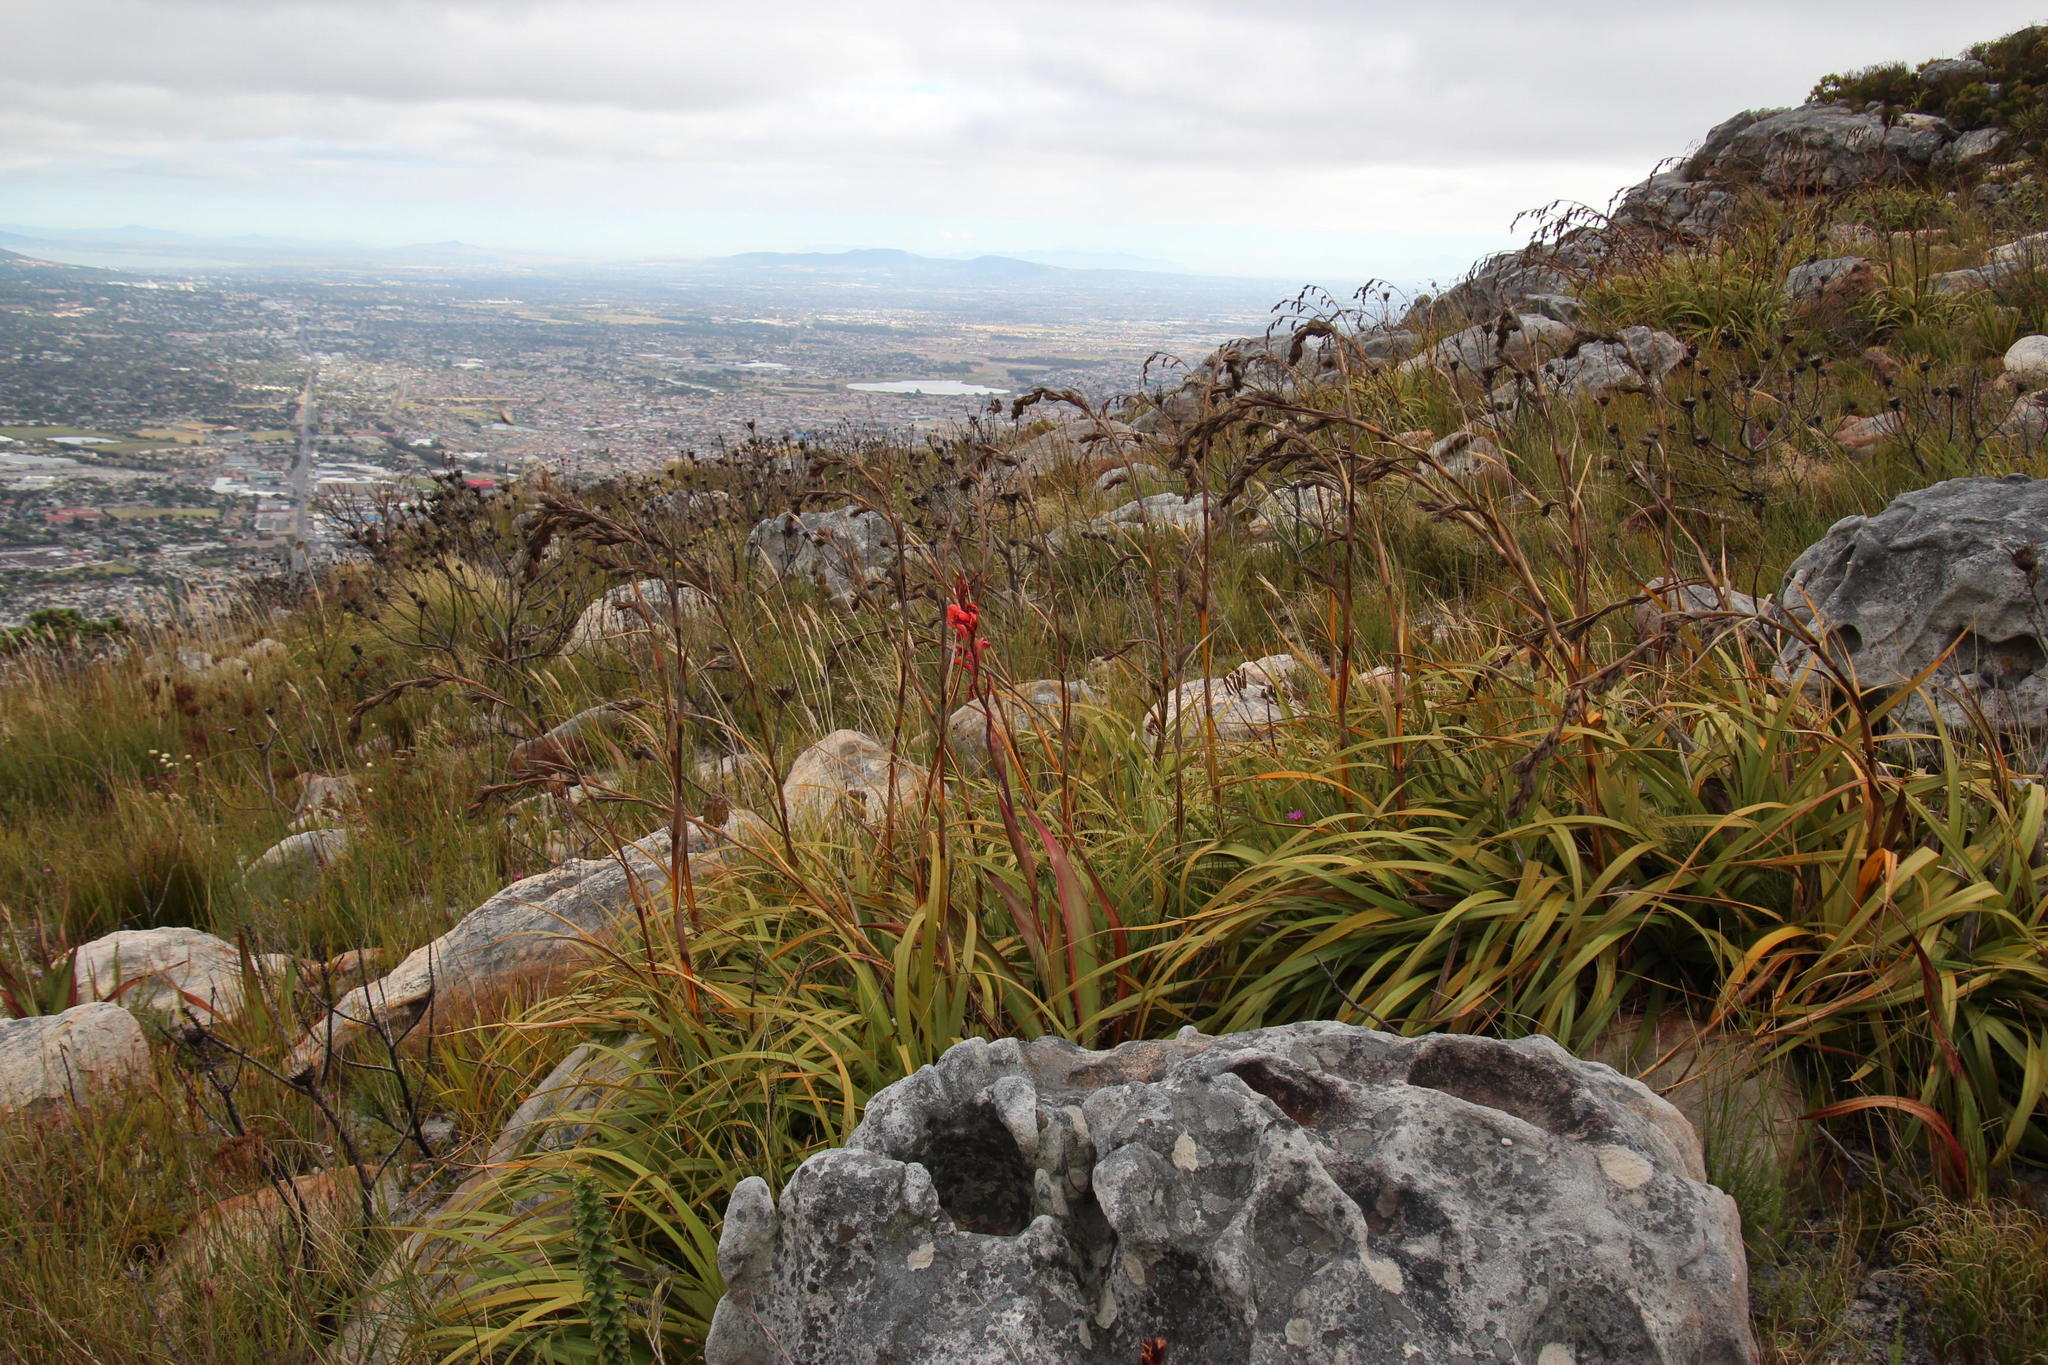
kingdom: Plantae
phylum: Tracheophyta
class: Liliopsida
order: Poales
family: Cyperaceae
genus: Tetraria
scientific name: Tetraria thermalis
